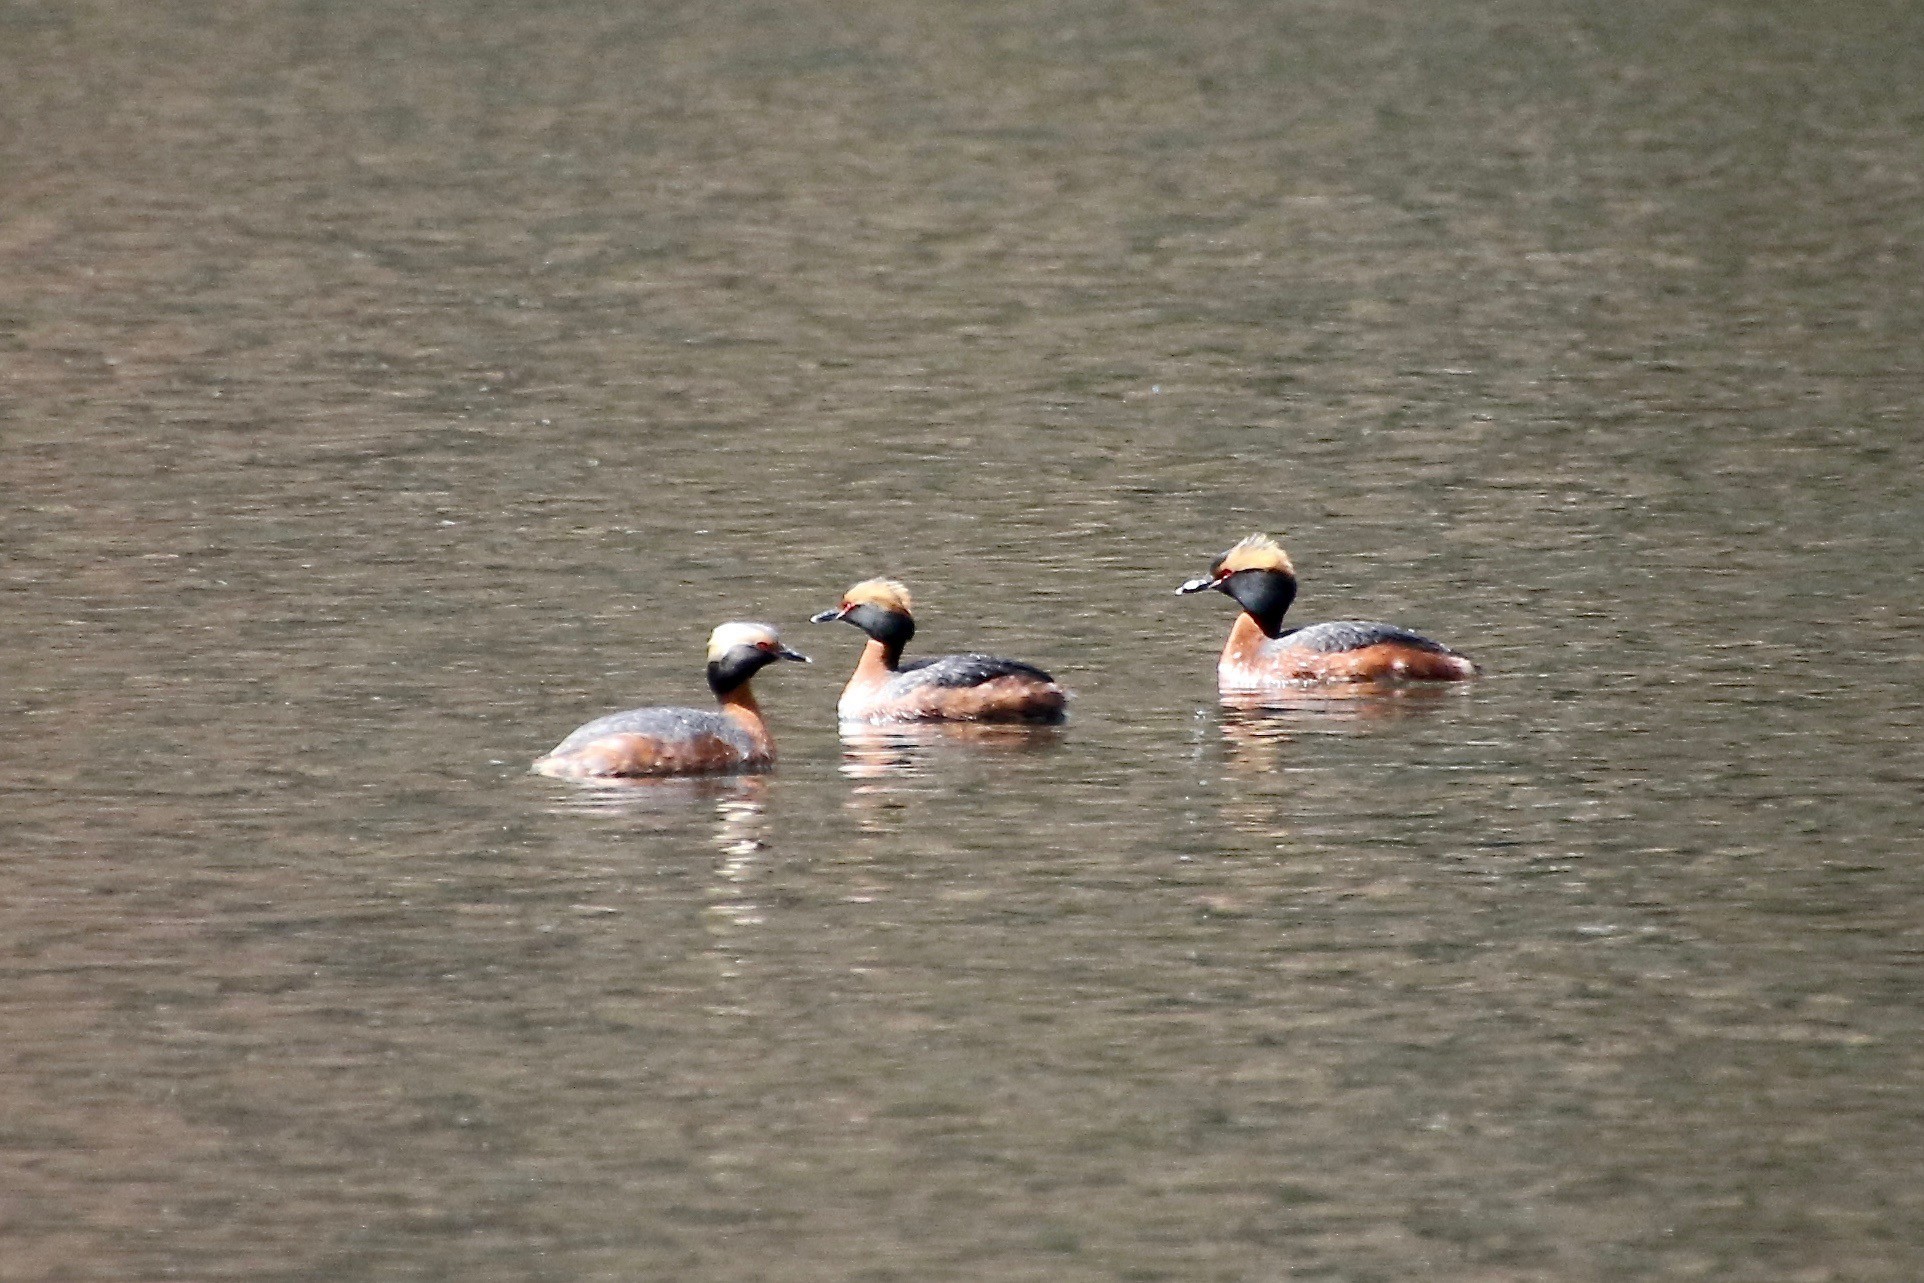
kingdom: Animalia
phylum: Chordata
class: Aves
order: Podicipediformes
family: Podicipedidae
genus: Podiceps
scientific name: Podiceps auritus
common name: Horned grebe
